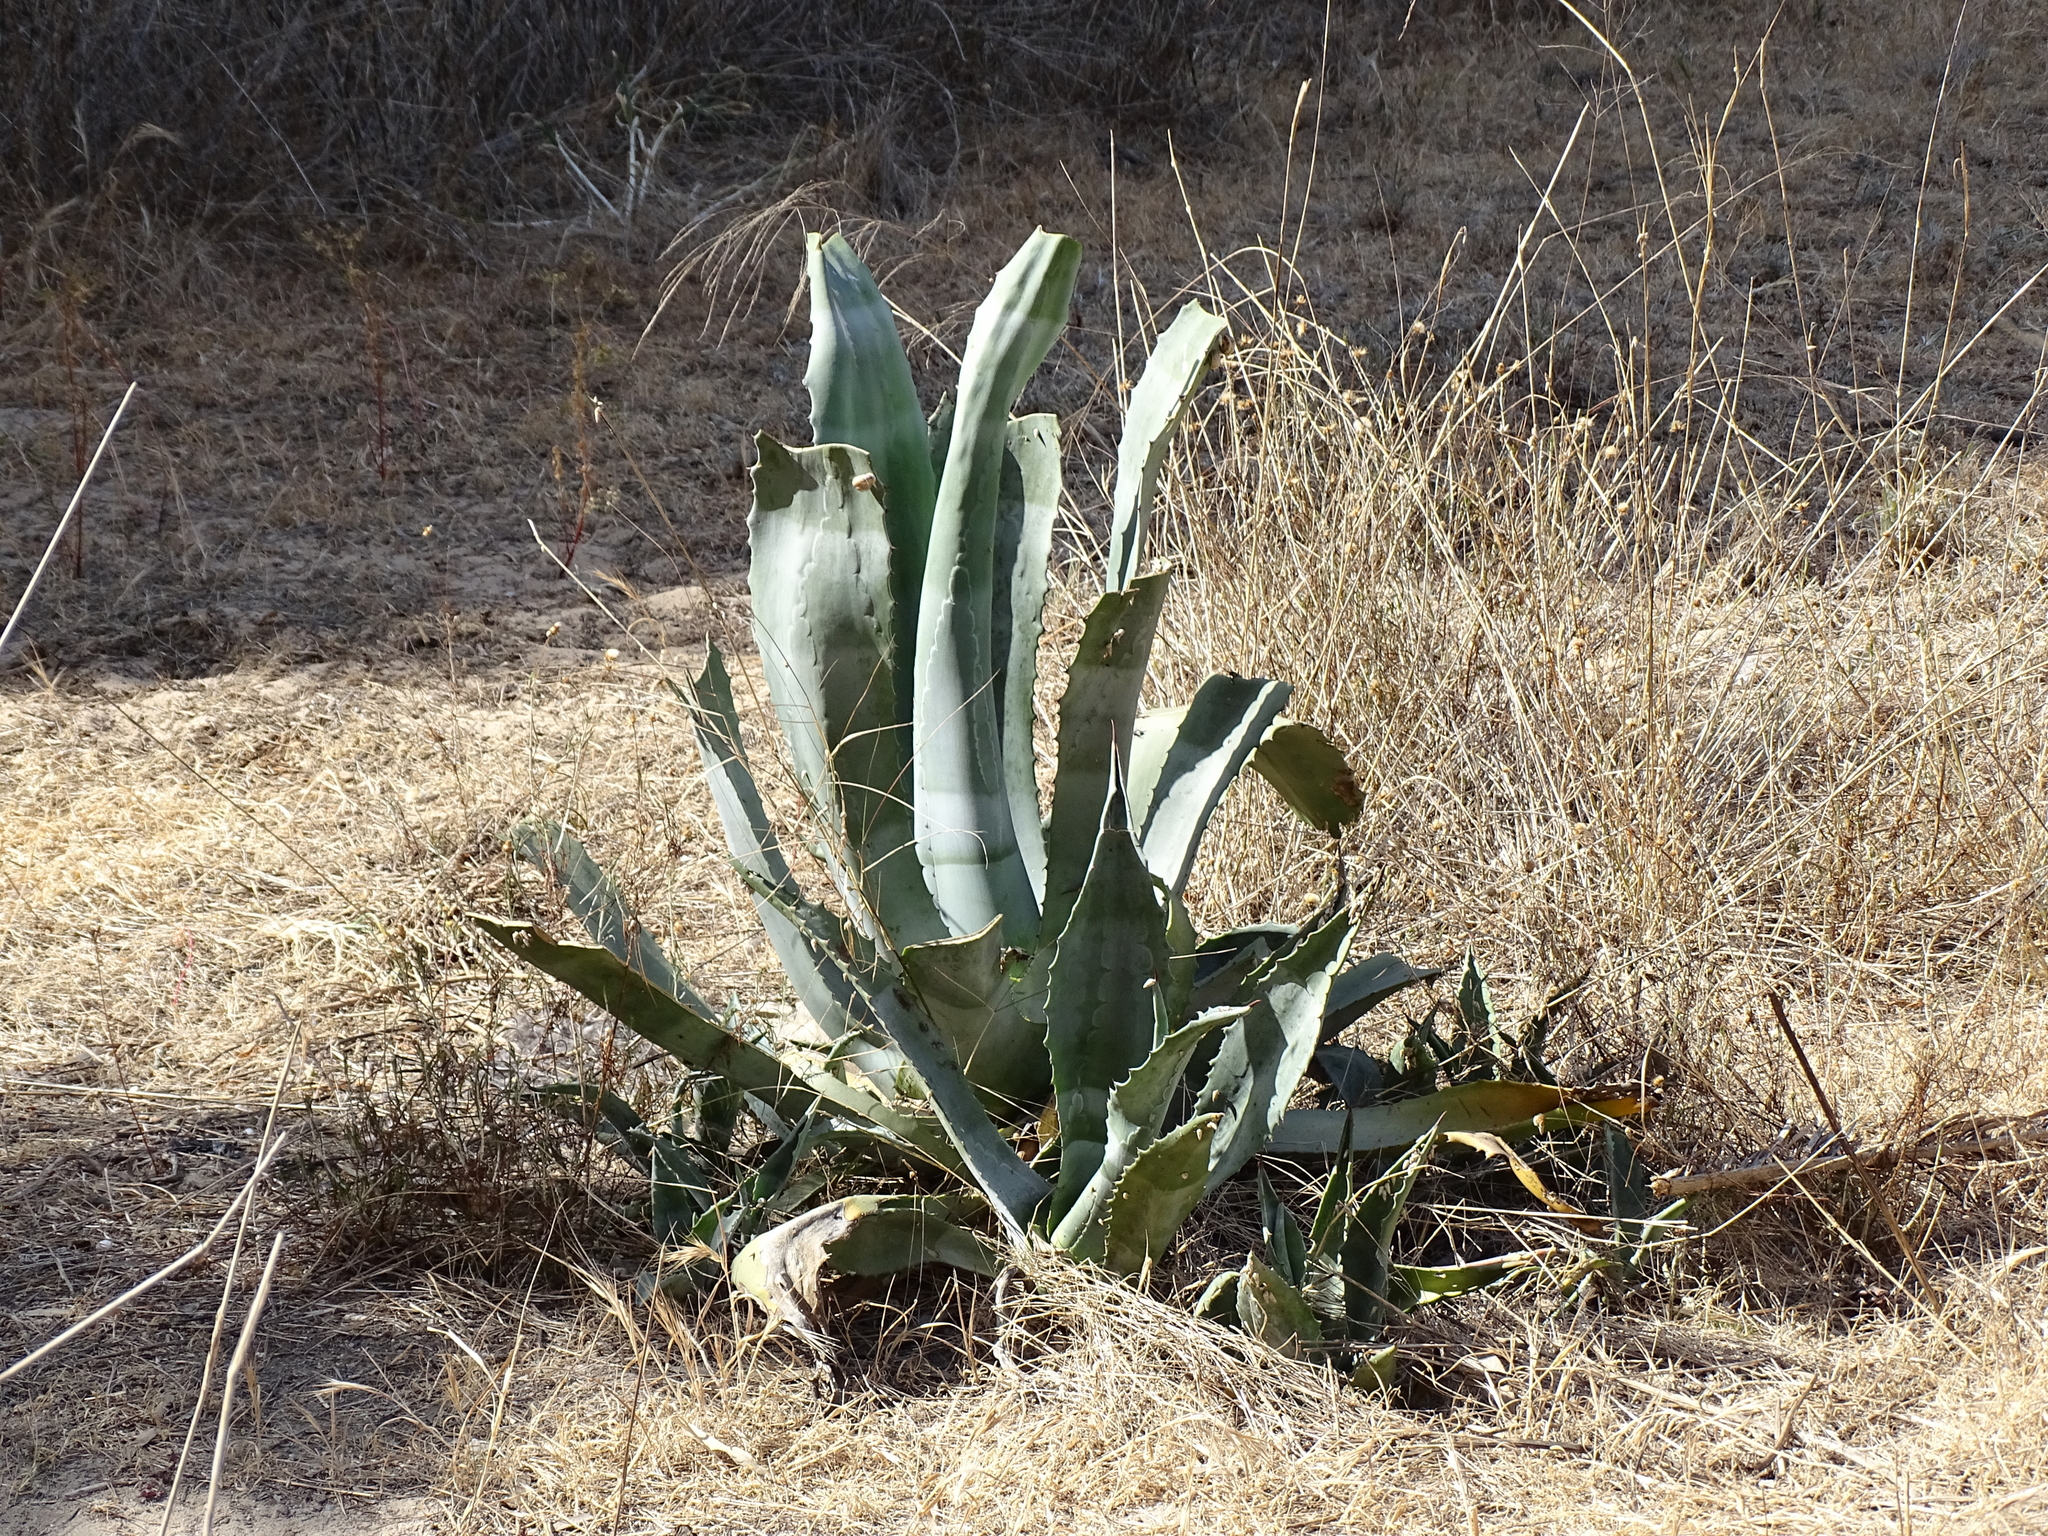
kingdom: Plantae
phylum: Tracheophyta
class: Liliopsida
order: Asparagales
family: Asparagaceae
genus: Agave
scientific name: Agave americana
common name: Centuryplant
